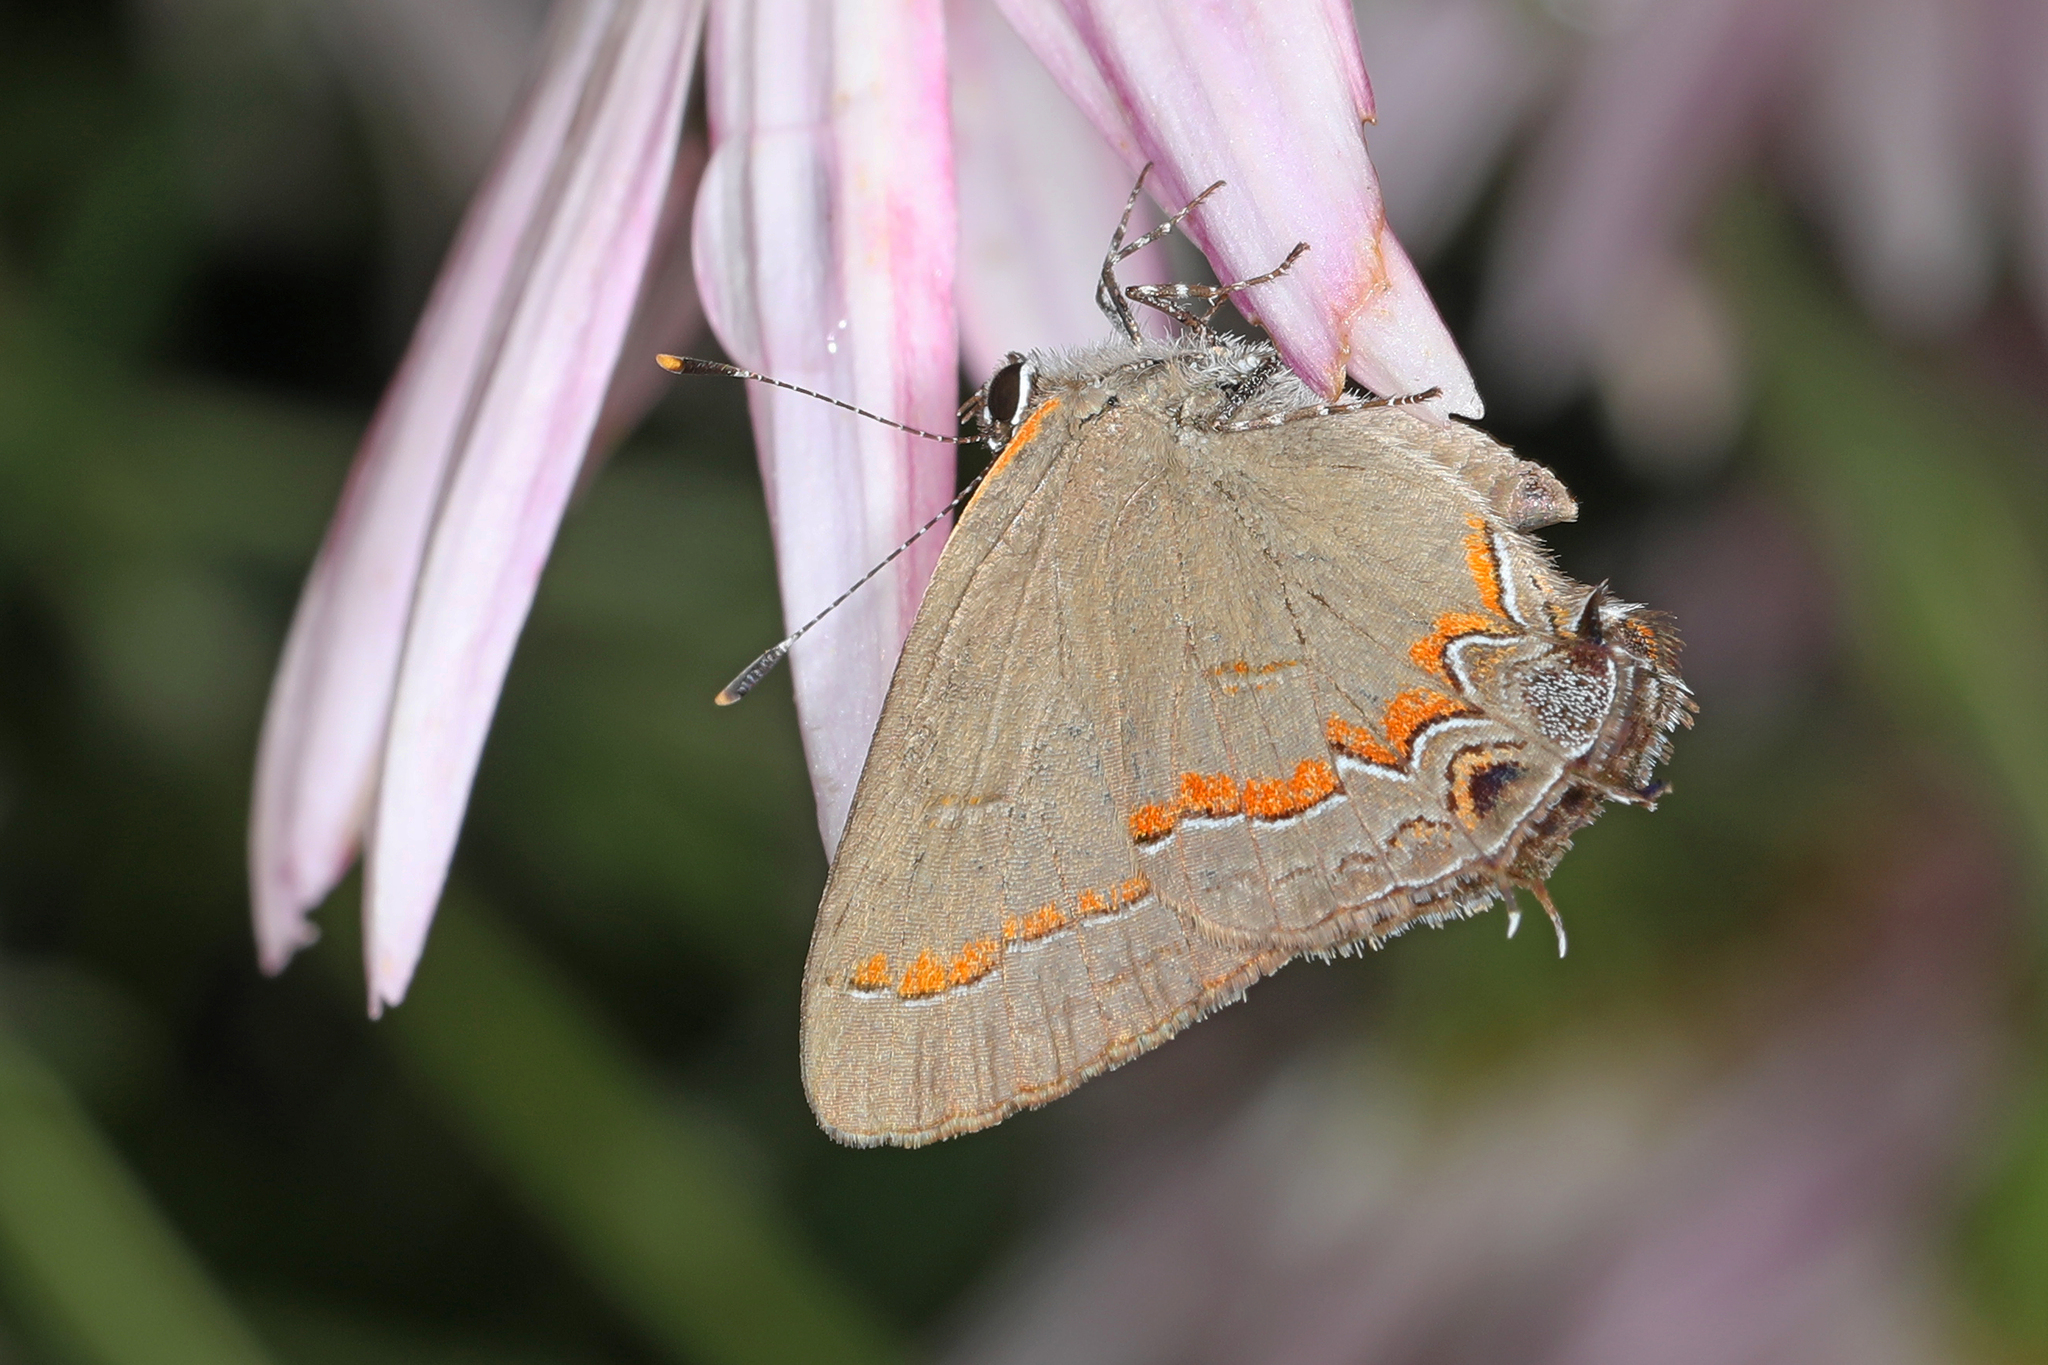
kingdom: Animalia
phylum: Arthropoda
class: Insecta
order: Lepidoptera
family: Lycaenidae
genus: Calycopis
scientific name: Calycopis cecrops
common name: Red-banded hairstreak
